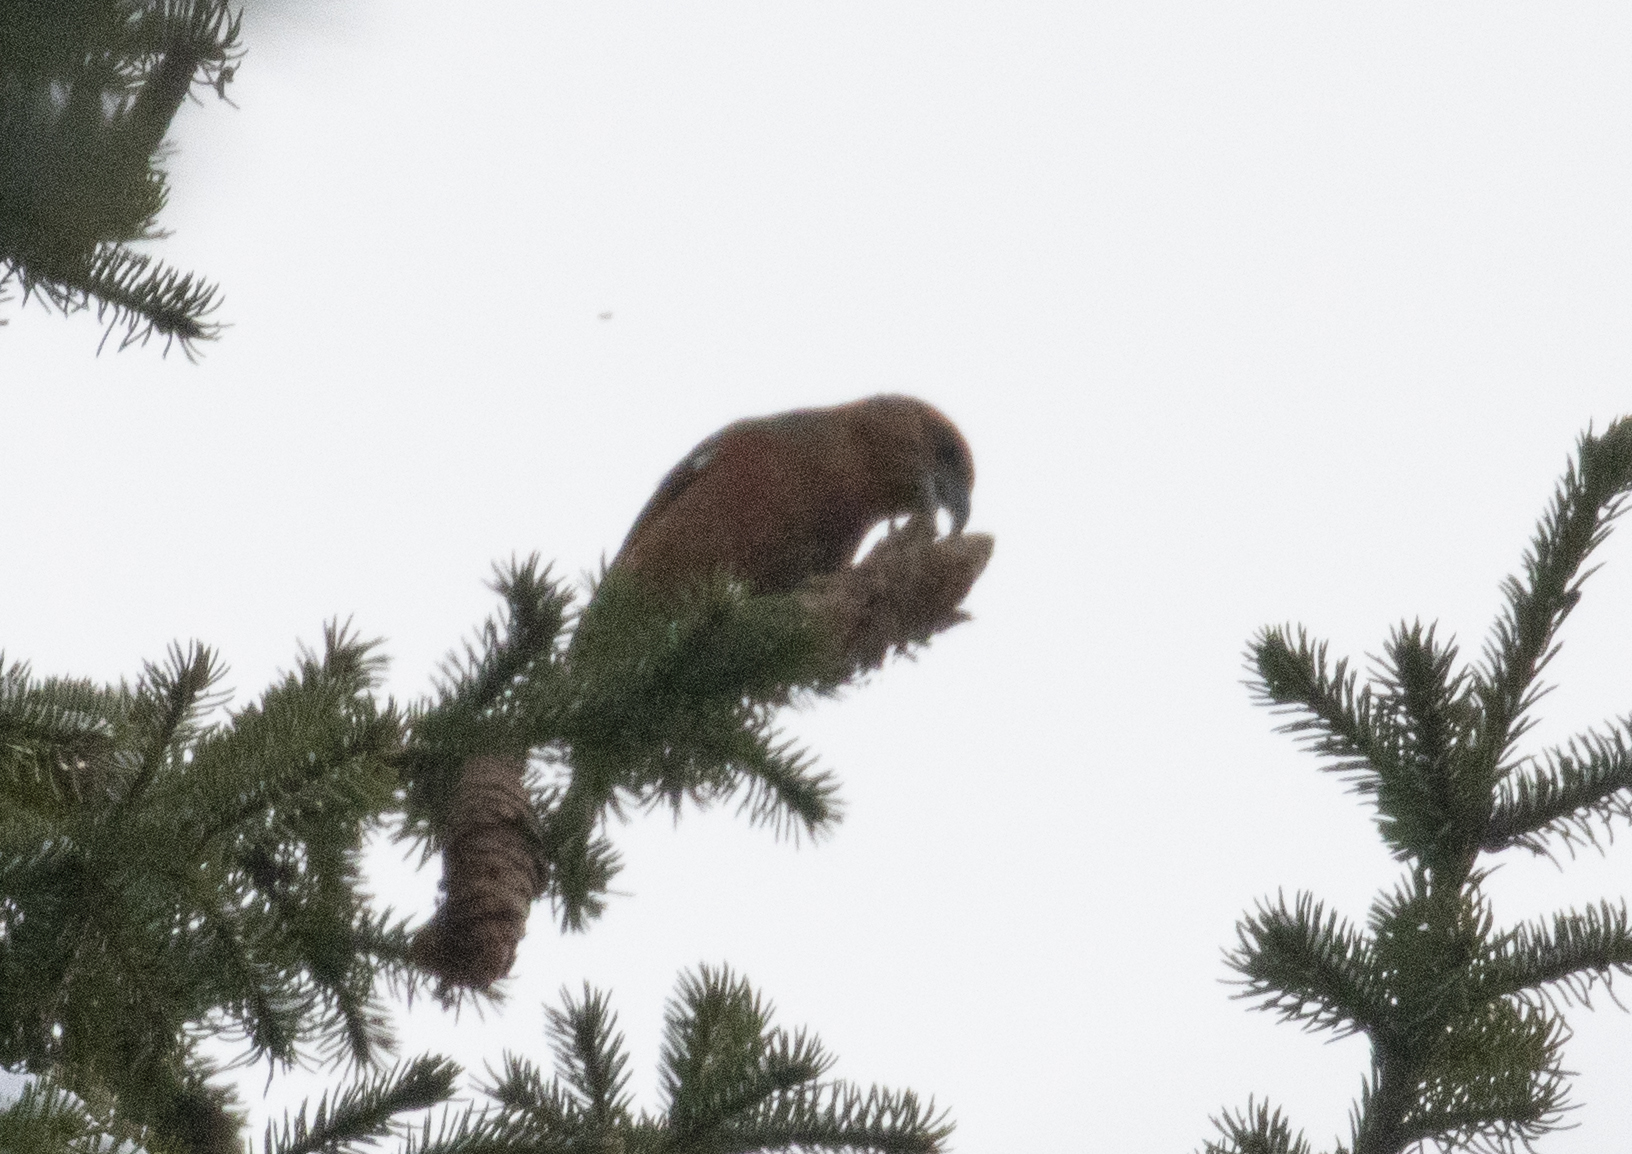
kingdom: Animalia
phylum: Chordata
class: Aves
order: Passeriformes
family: Fringillidae
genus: Loxia
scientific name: Loxia curvirostra
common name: Red crossbill
